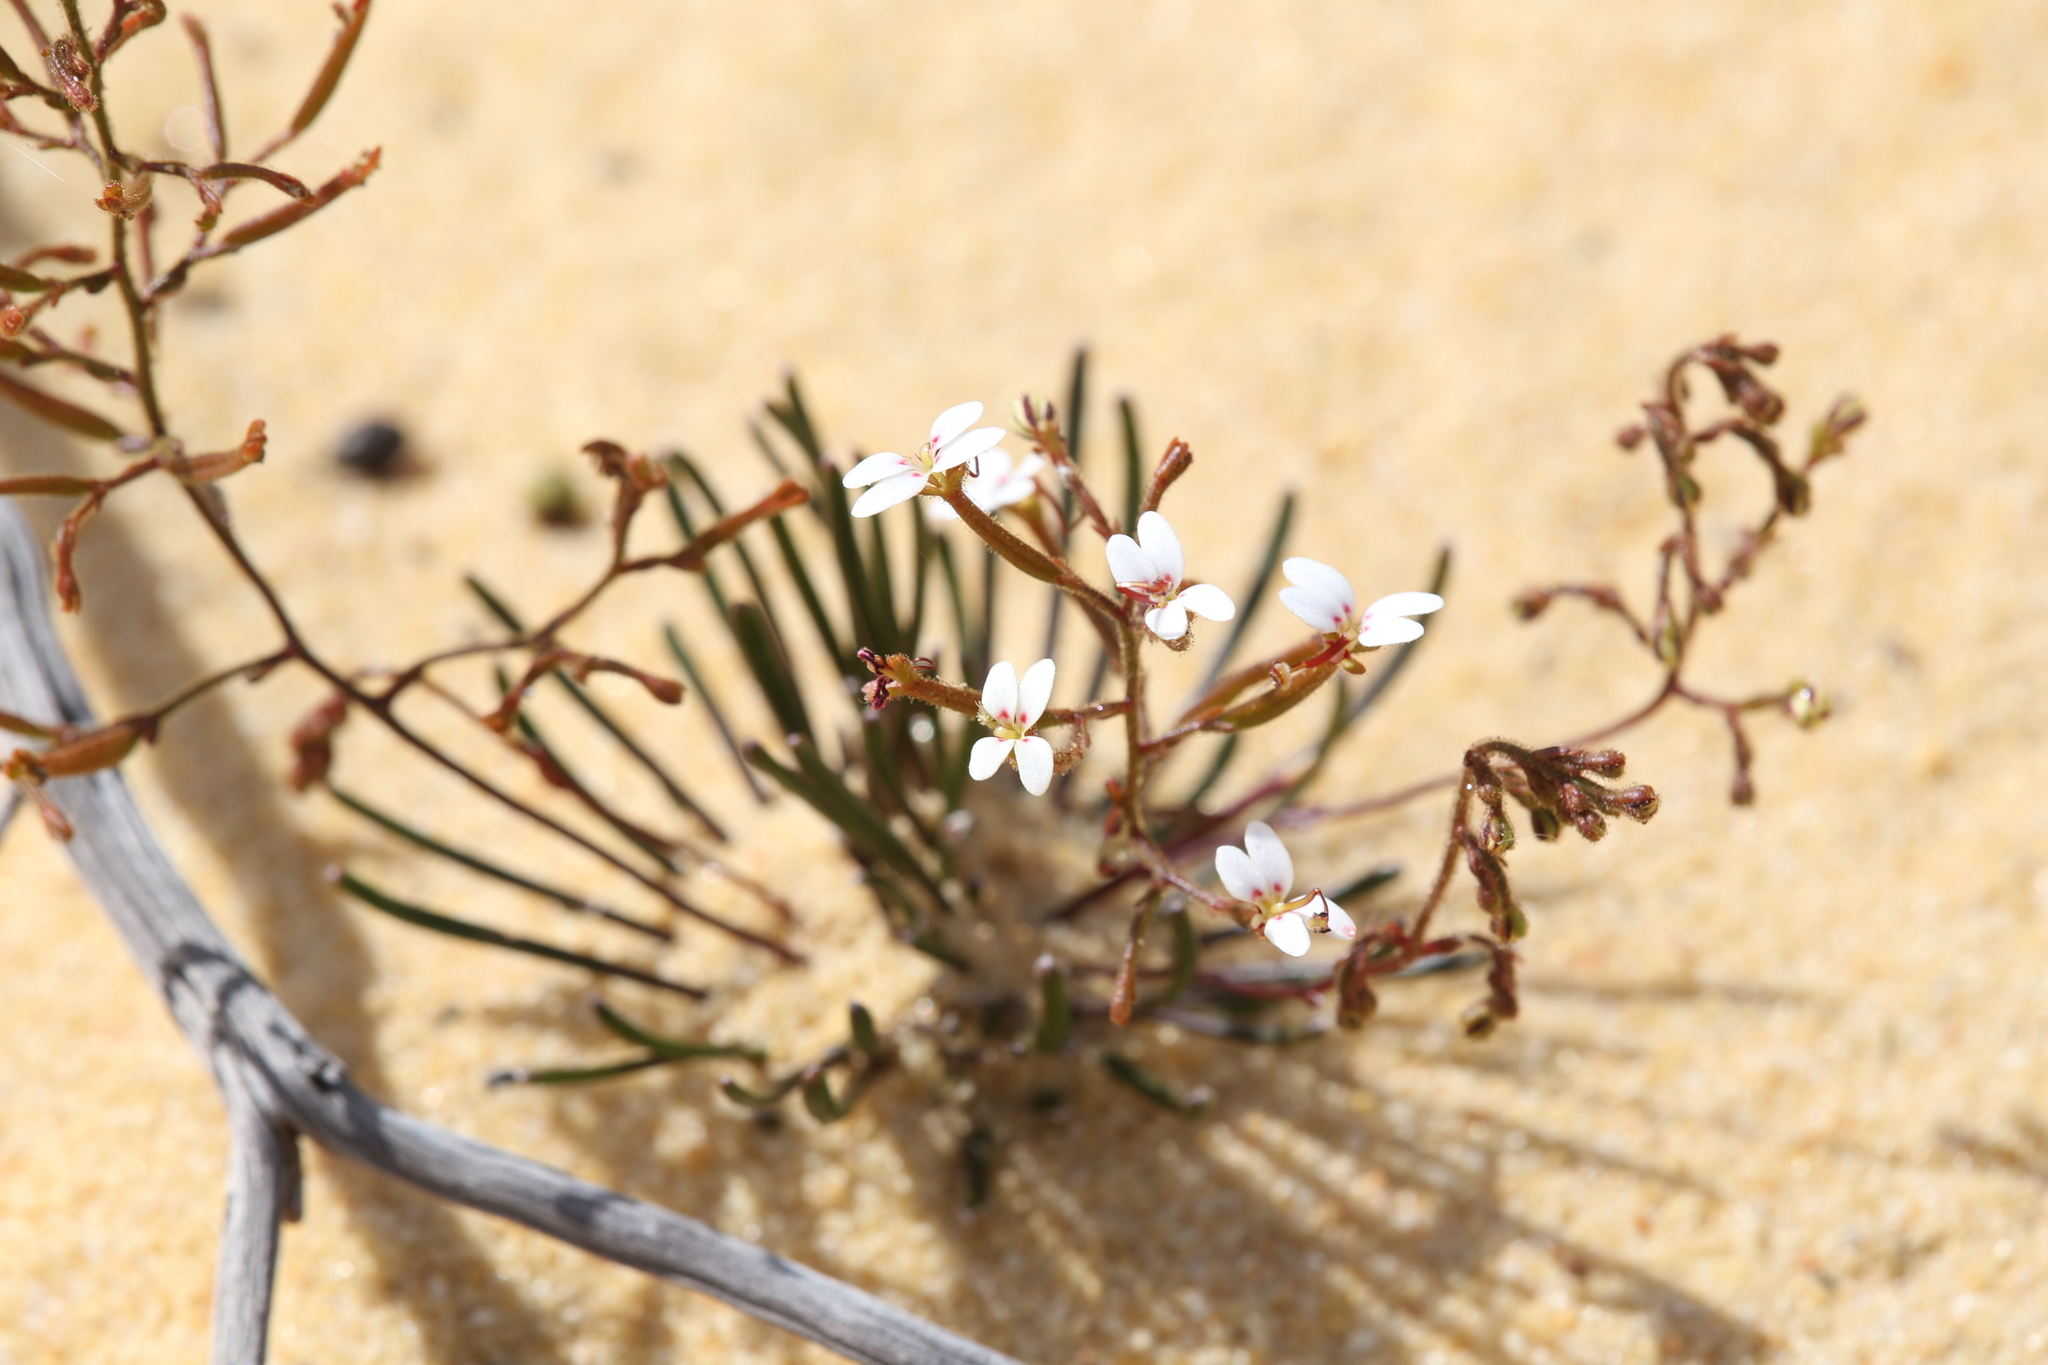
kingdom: Plantae
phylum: Tracheophyta
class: Magnoliopsida
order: Asterales
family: Stylidiaceae
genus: Stylidium
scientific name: Stylidium kalbarriense
